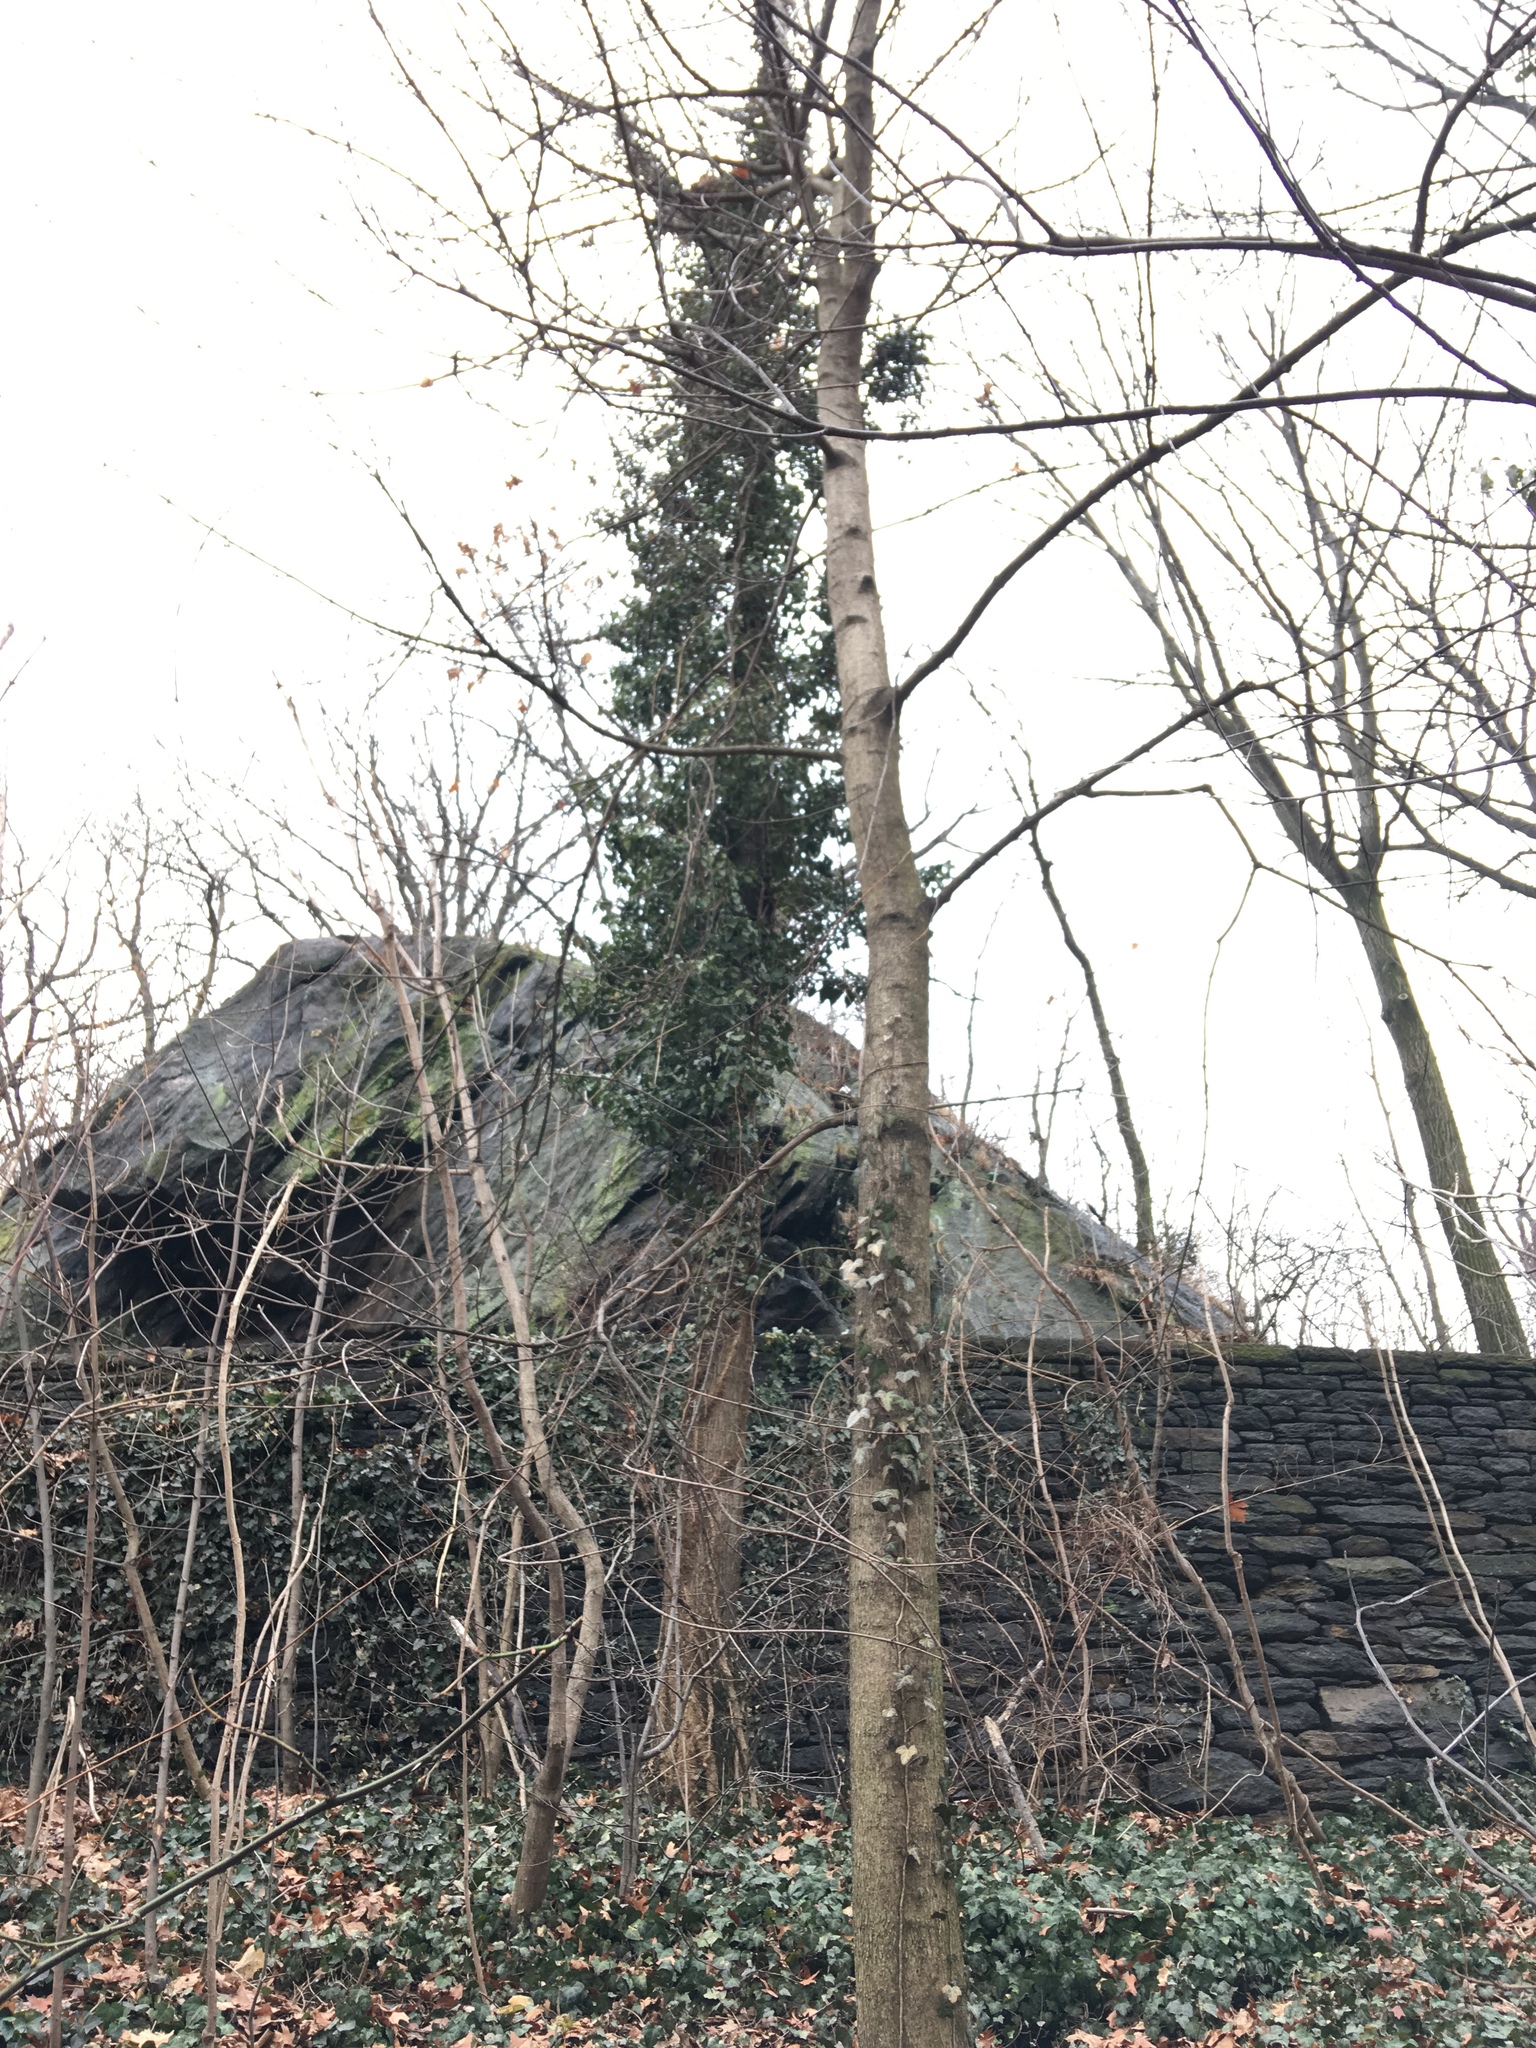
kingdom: Plantae
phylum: Tracheophyta
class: Magnoliopsida
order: Apiales
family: Araliaceae
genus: Hedera
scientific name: Hedera helix
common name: Ivy
